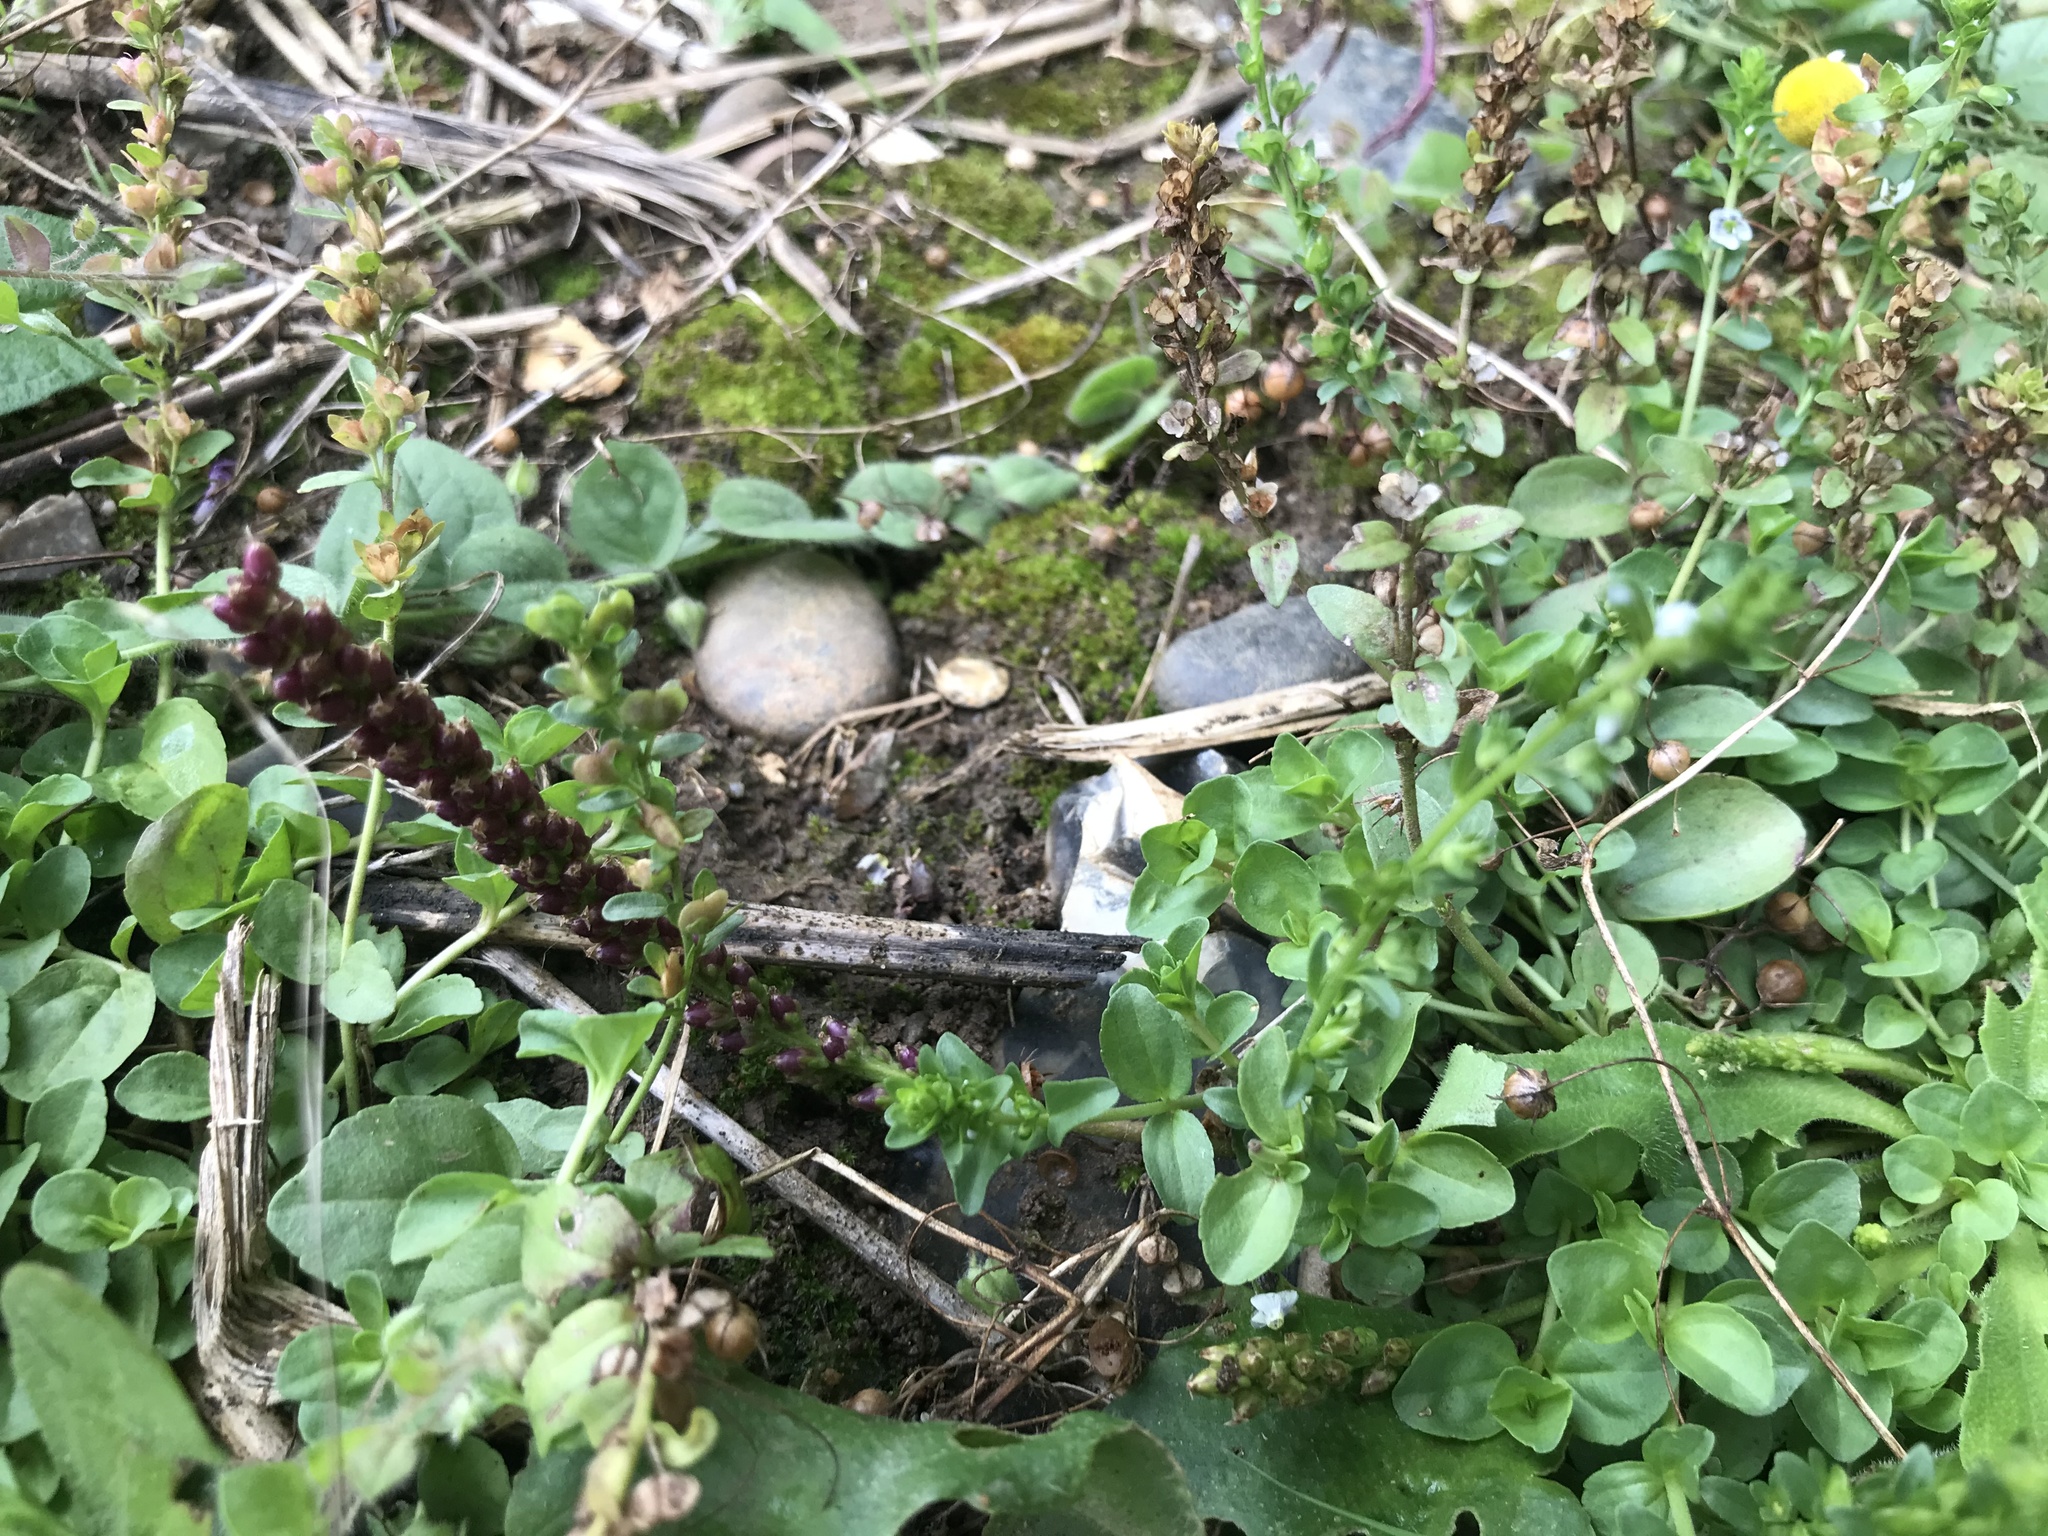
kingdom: Plantae
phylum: Tracheophyta
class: Magnoliopsida
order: Lamiales
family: Plantaginaceae
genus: Plantago
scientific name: Plantago major
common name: Common plantain
